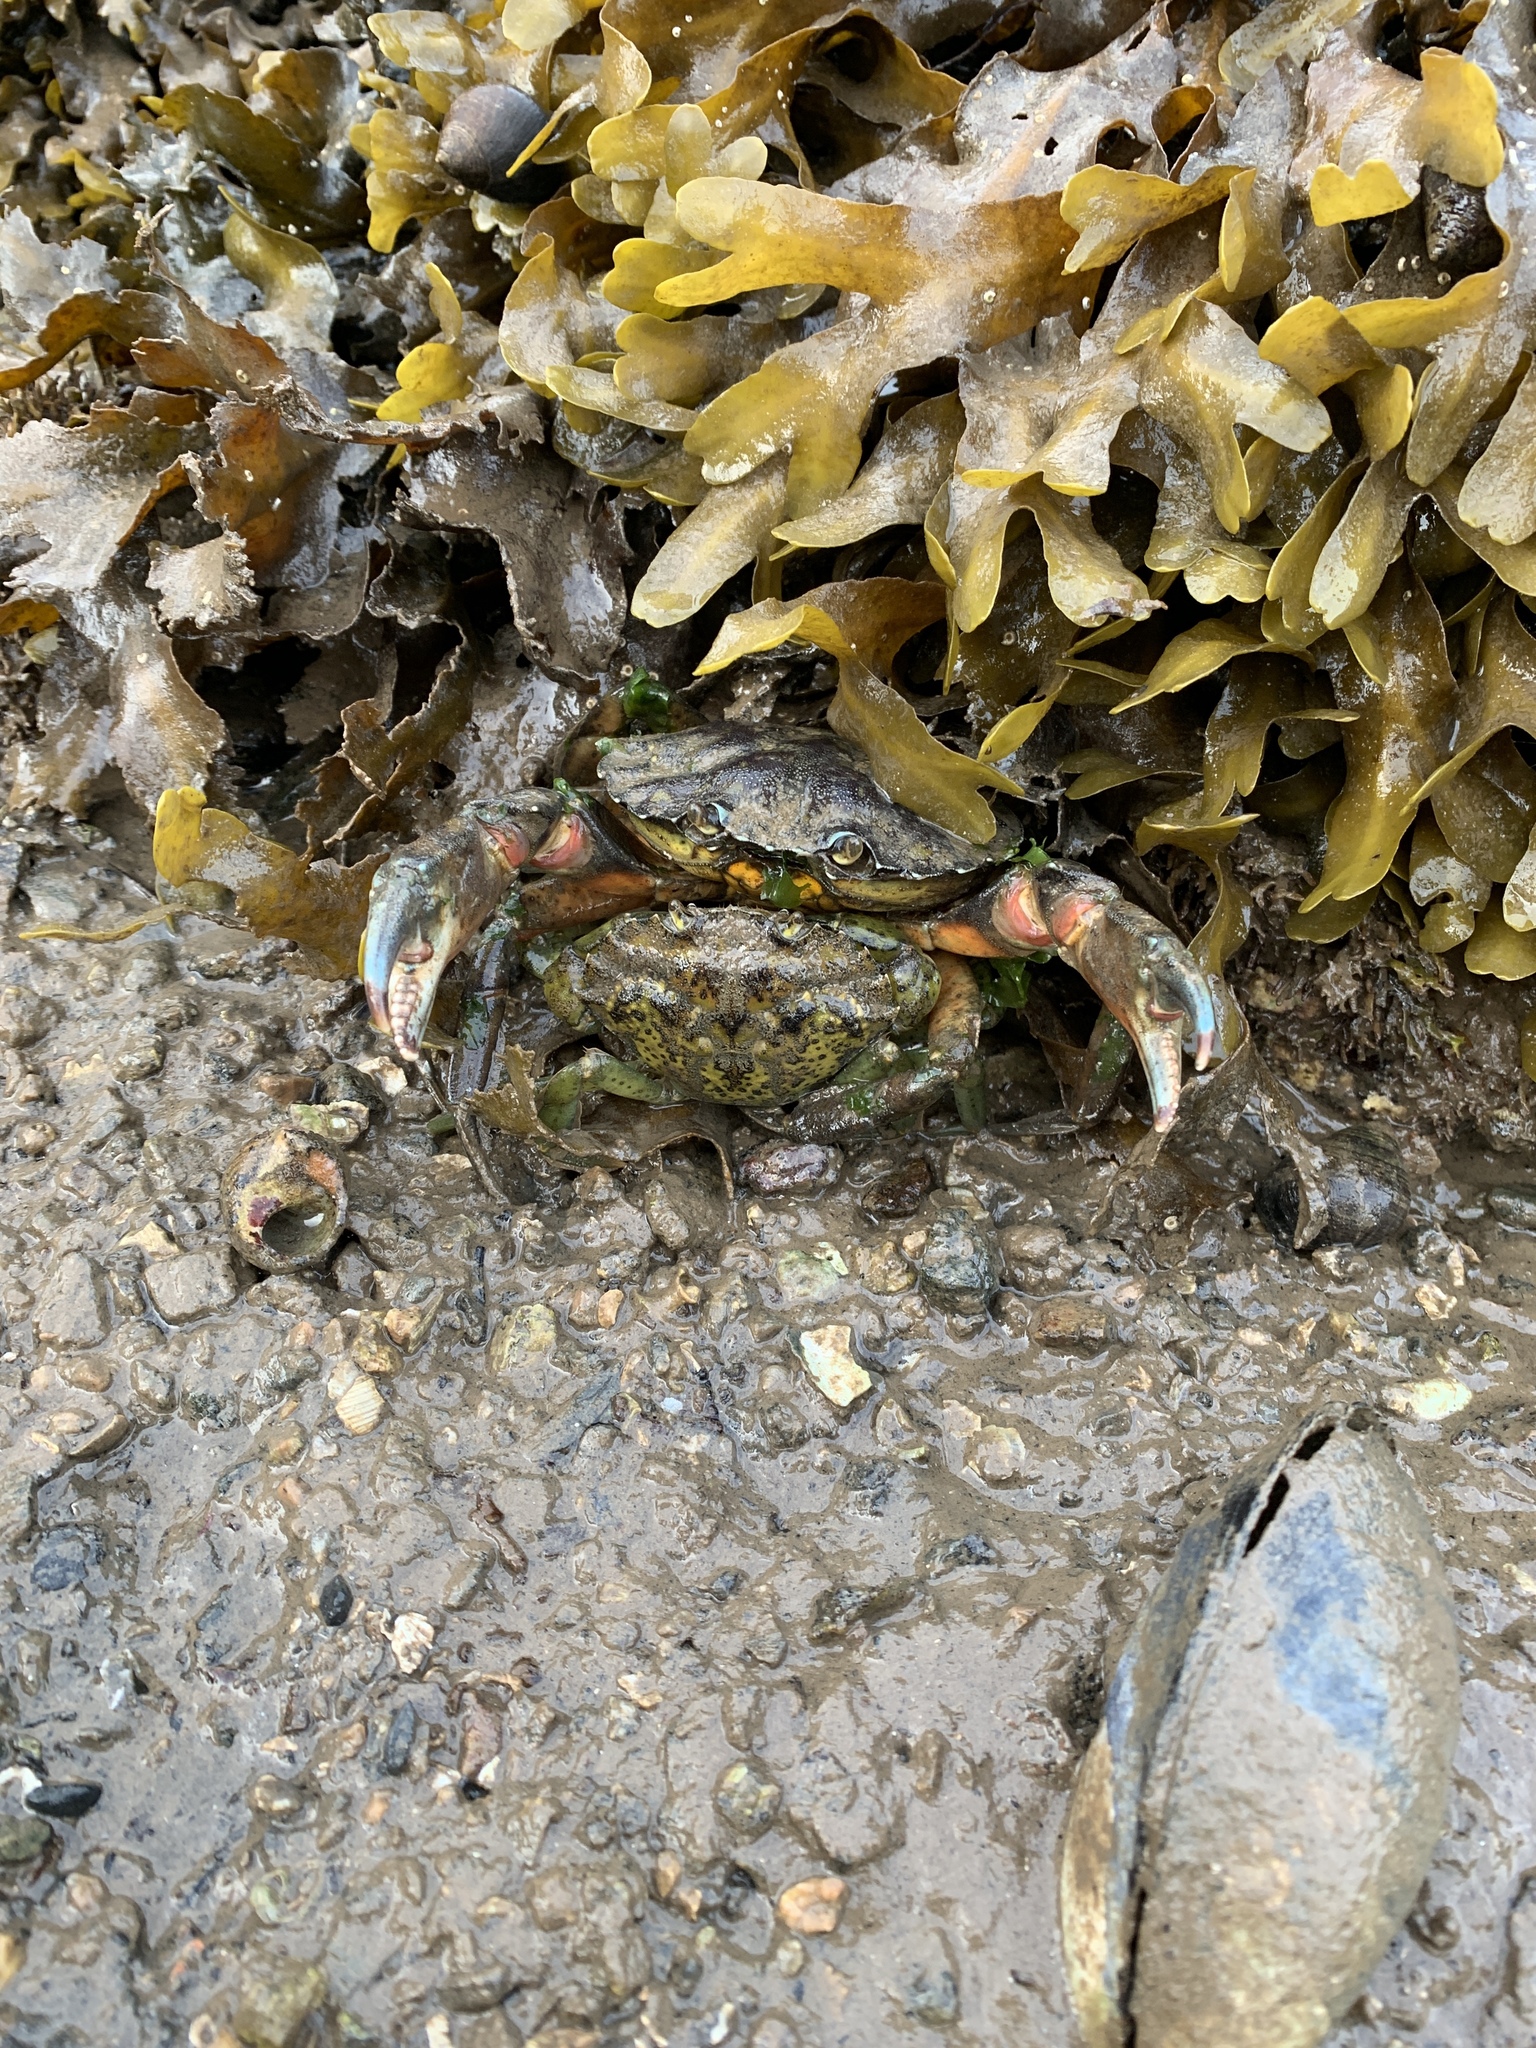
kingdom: Animalia
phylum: Arthropoda
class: Malacostraca
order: Decapoda
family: Carcinidae
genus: Carcinus
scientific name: Carcinus maenas
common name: European green crab
